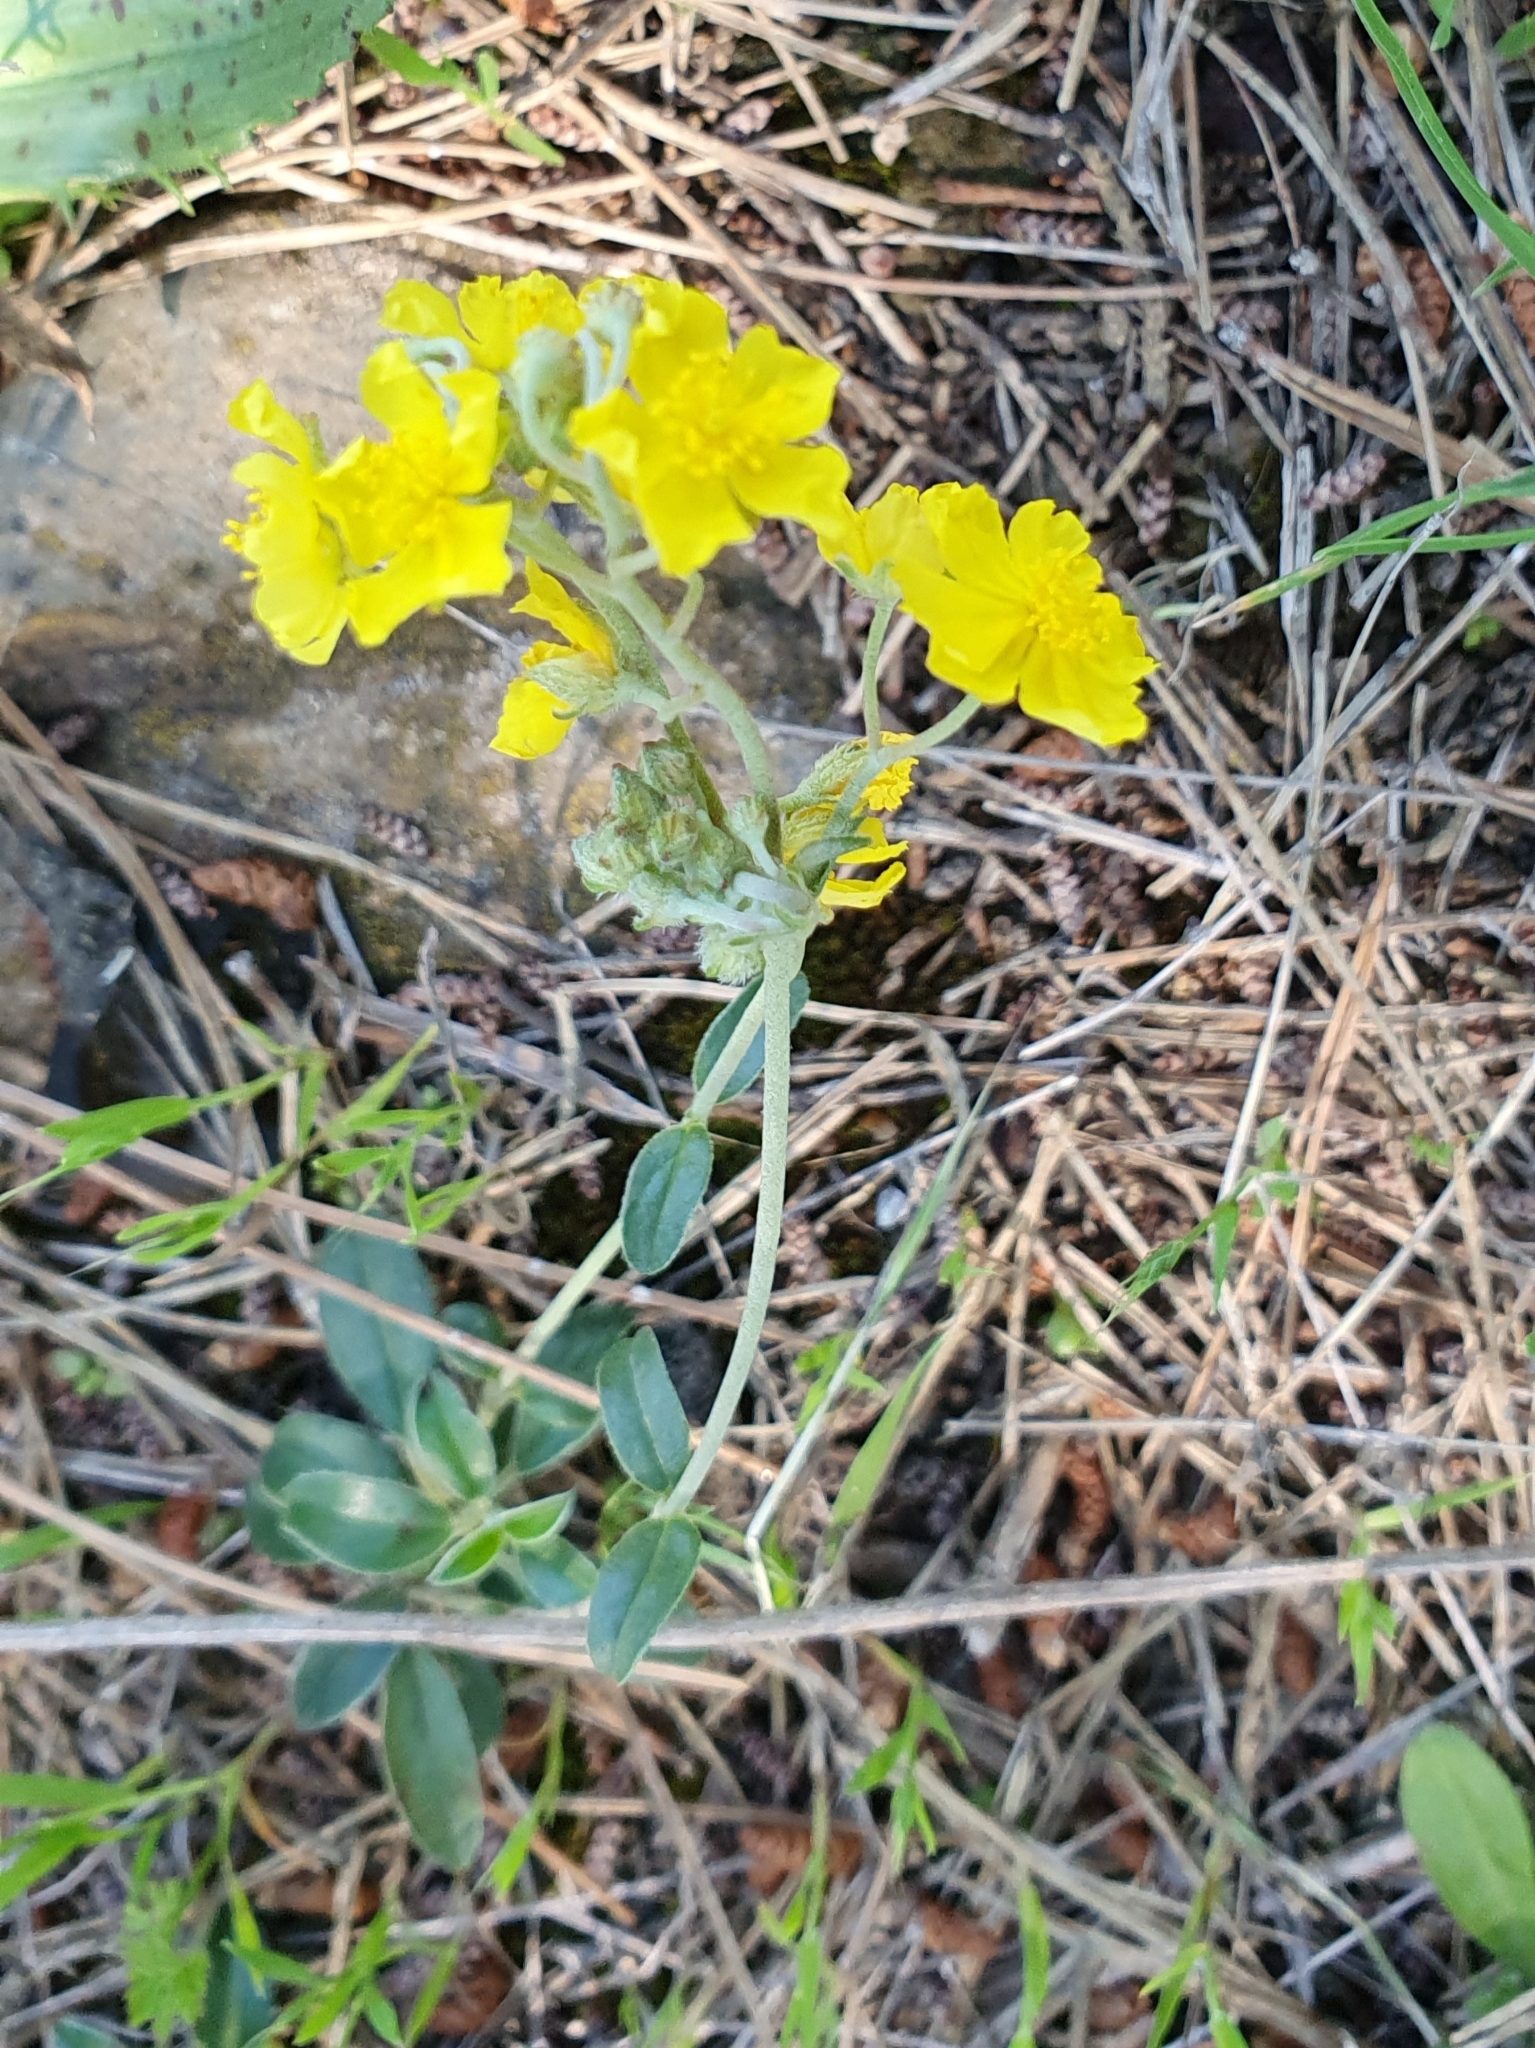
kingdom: Plantae
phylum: Tracheophyta
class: Magnoliopsida
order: Malvales
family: Cistaceae
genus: Helianthemum
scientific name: Helianthemum cinereum
